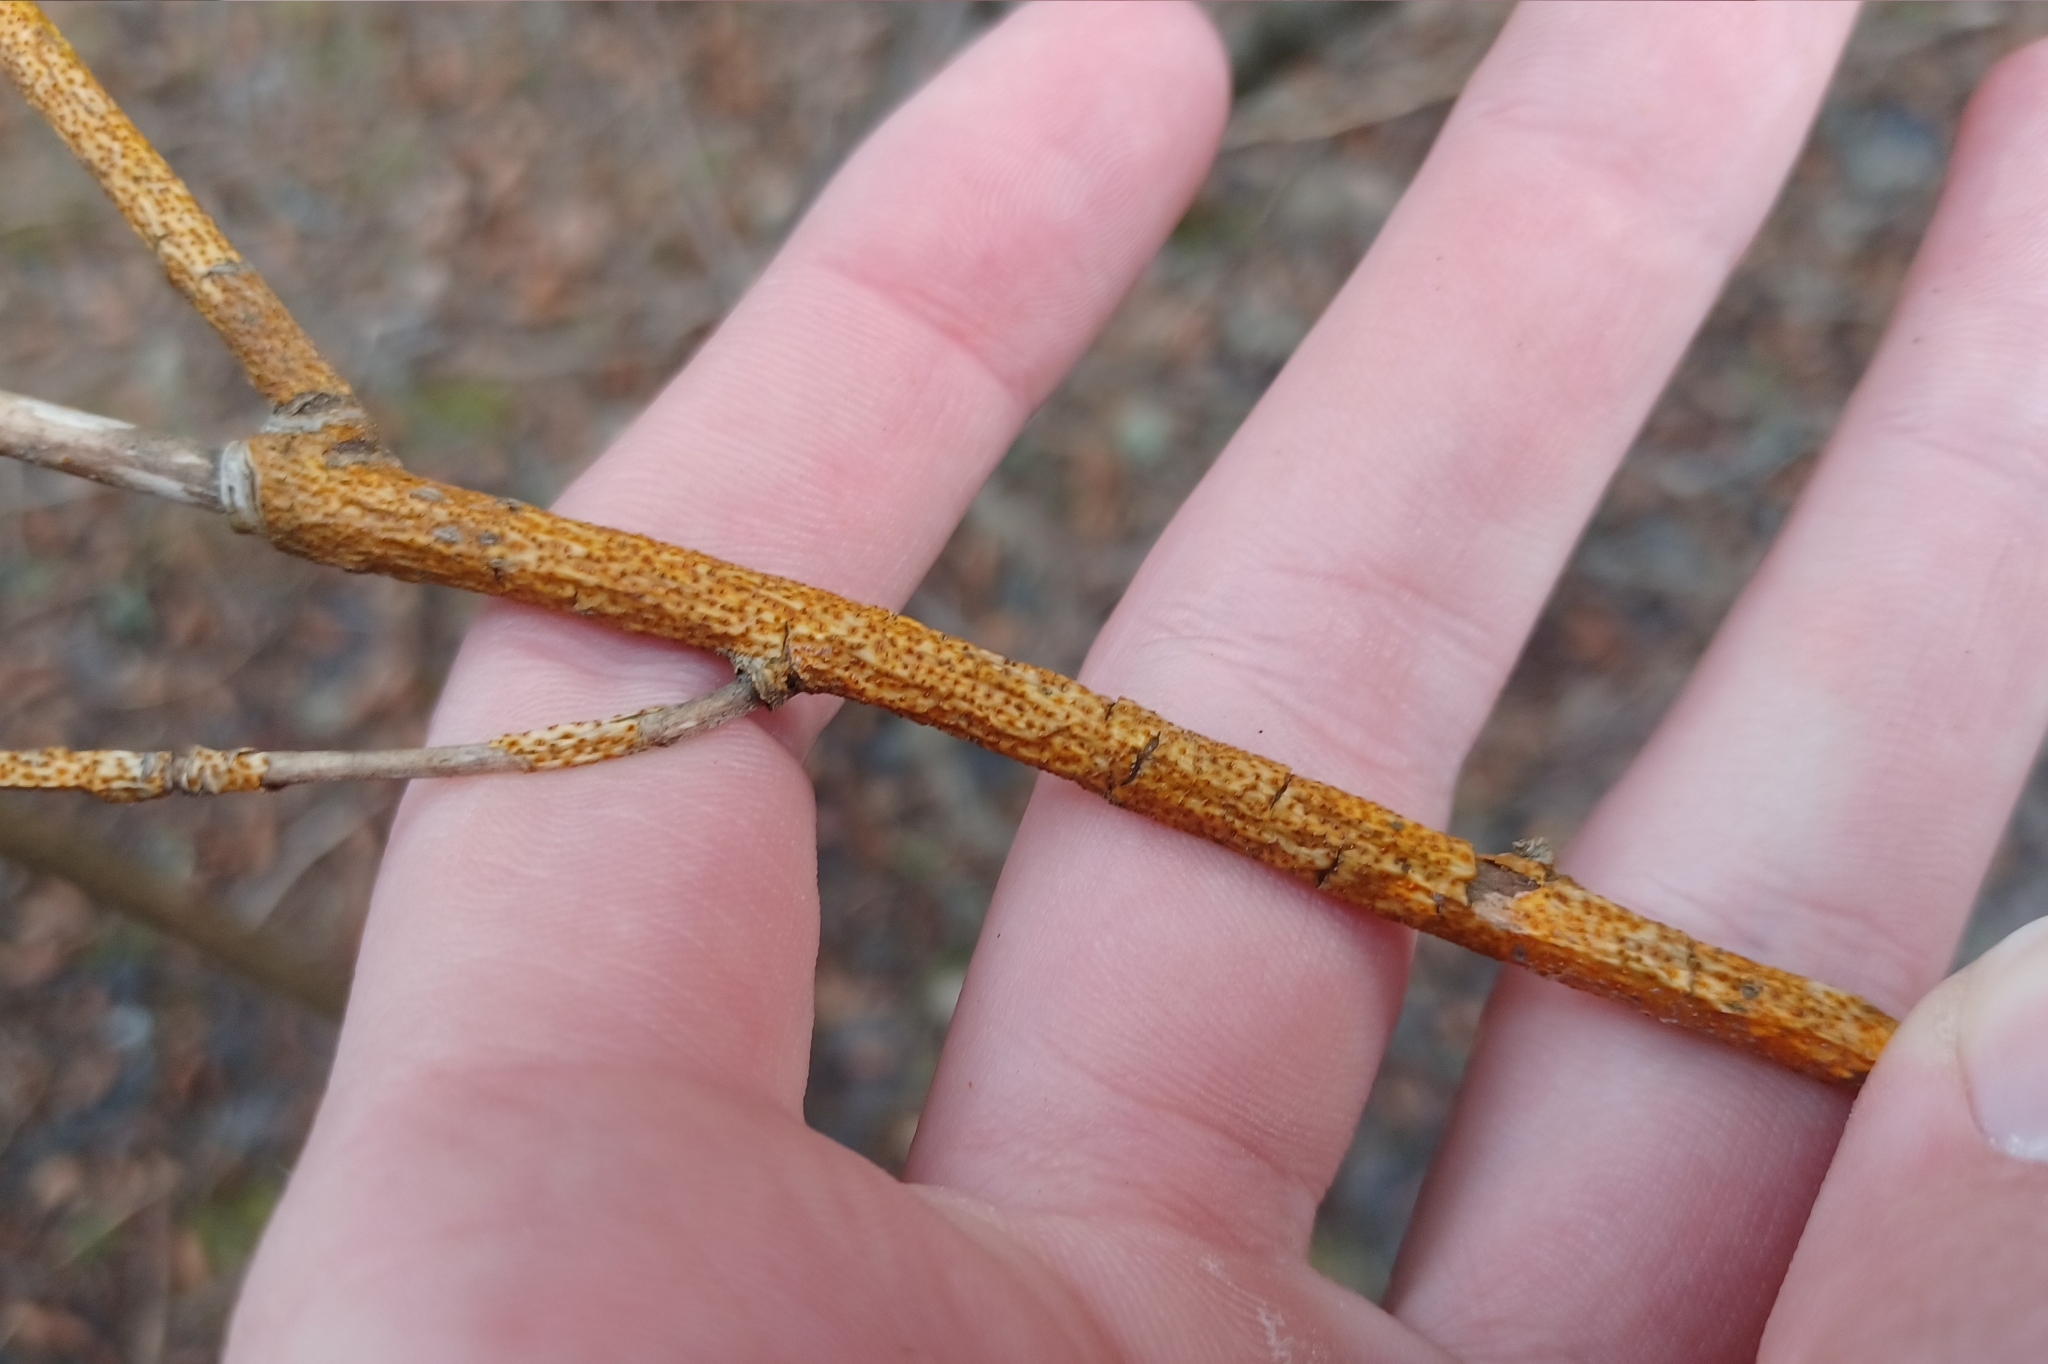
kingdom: Fungi
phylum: Ascomycota
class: Sordariomycetes
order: Diaporthales
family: Cryphonectriaceae
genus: Aurantioporthe
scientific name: Aurantioporthe corni
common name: Dogwood golden canker
